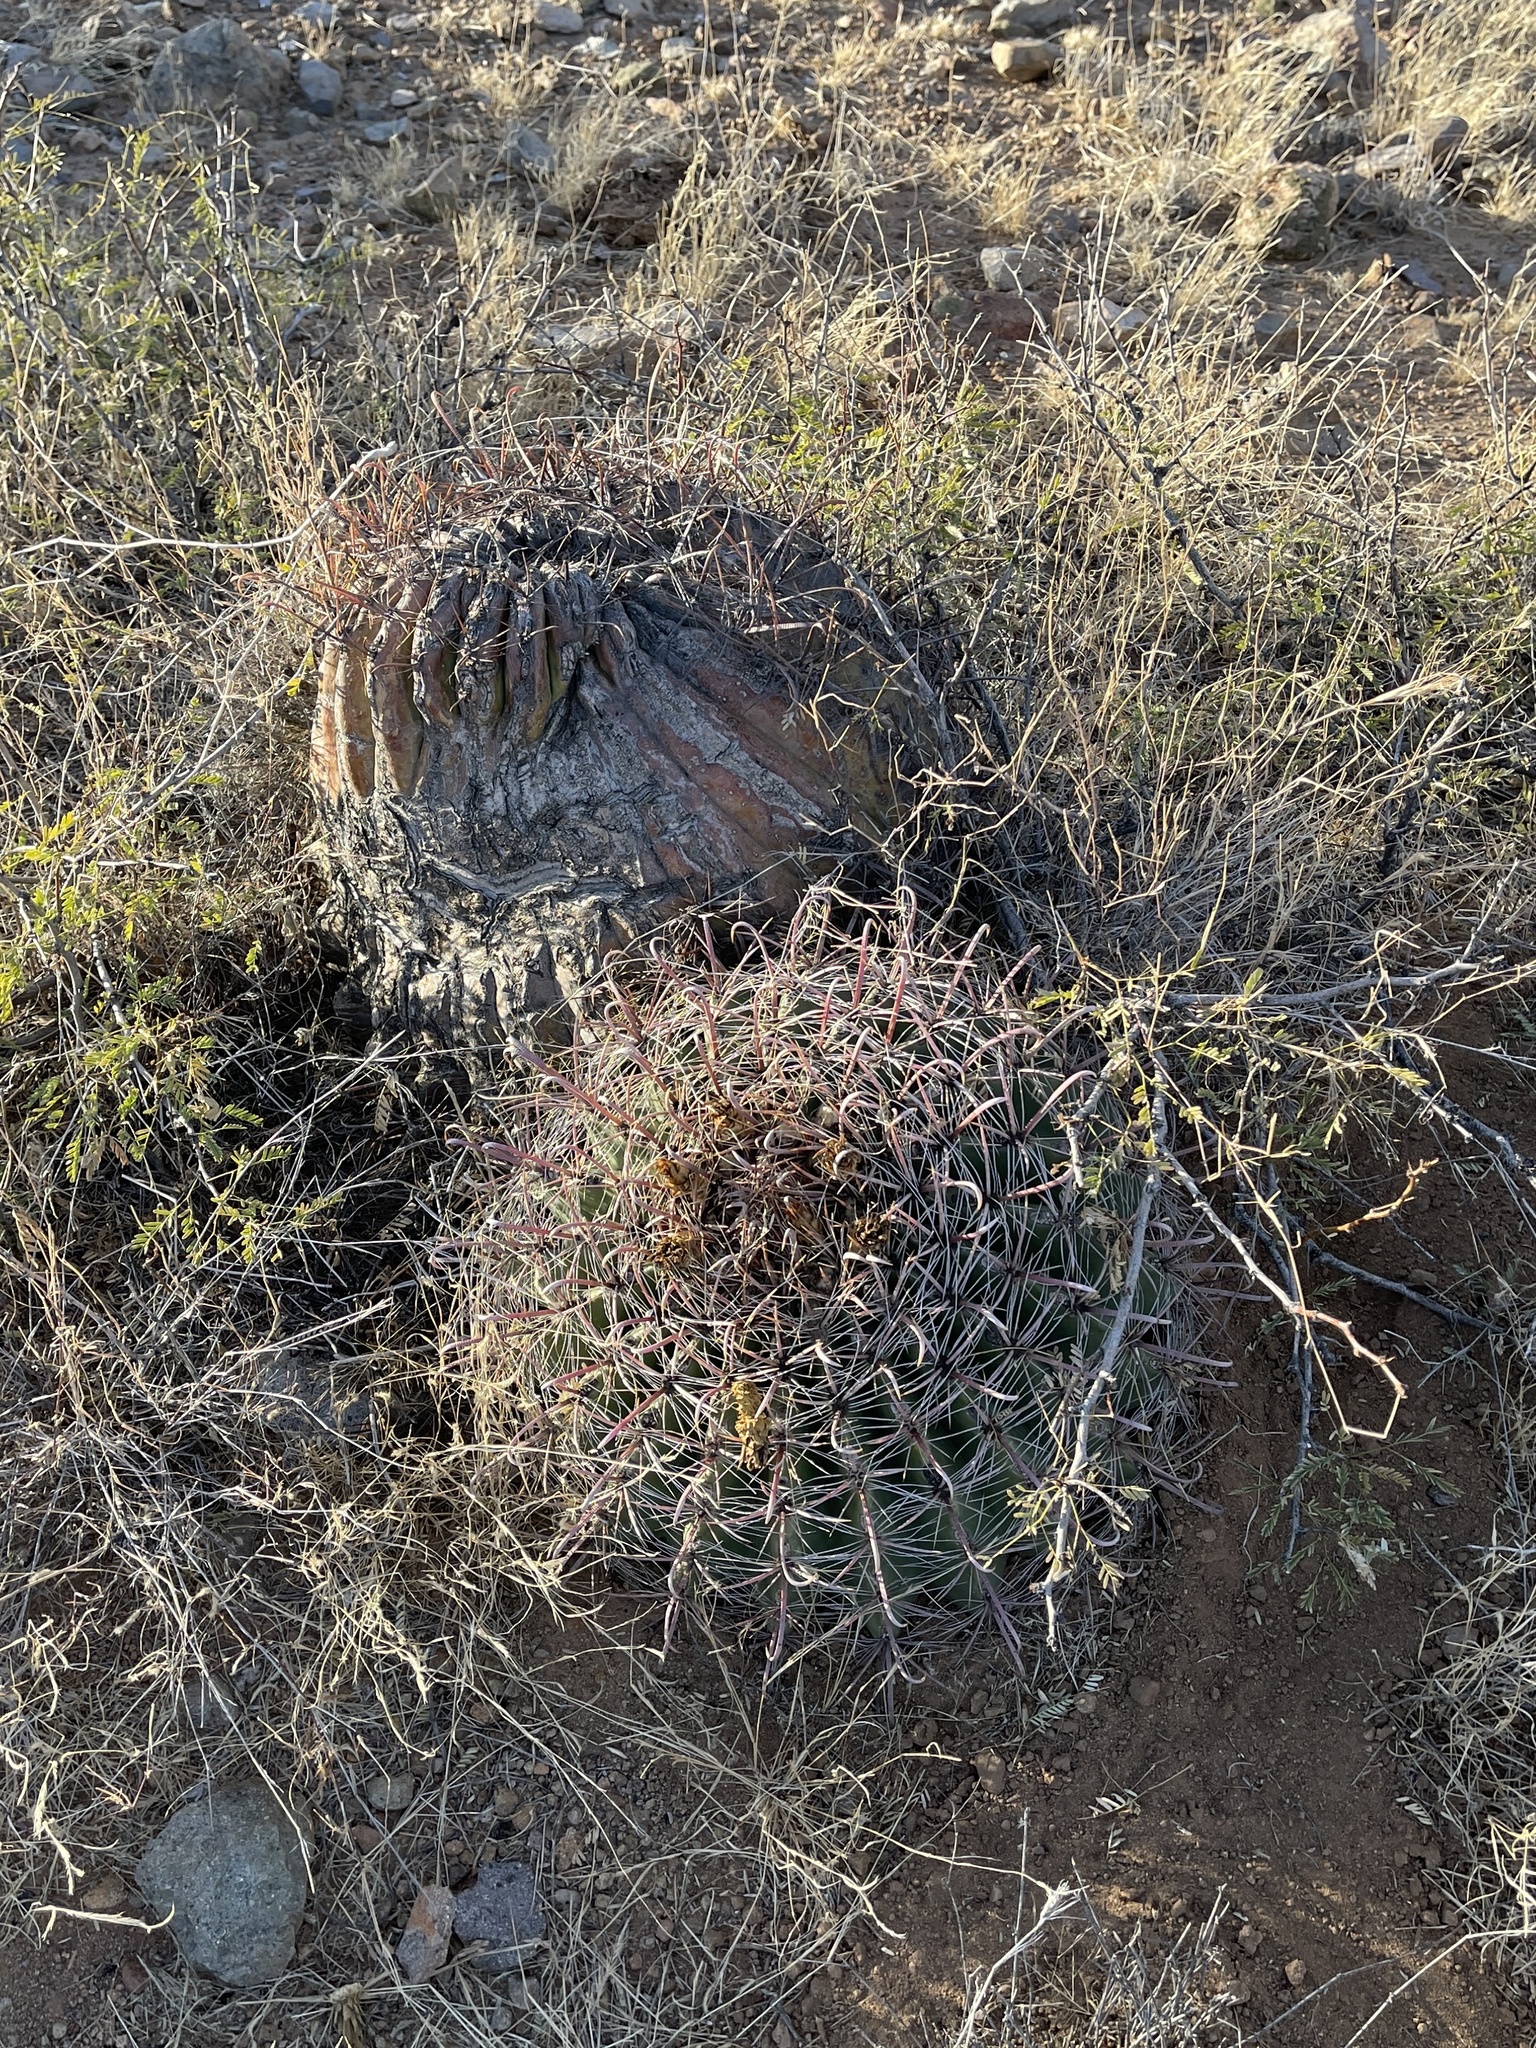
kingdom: Plantae
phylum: Tracheophyta
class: Magnoliopsida
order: Caryophyllales
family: Cactaceae
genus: Ferocactus
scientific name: Ferocactus wislizeni
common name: Candy barrel cactus
